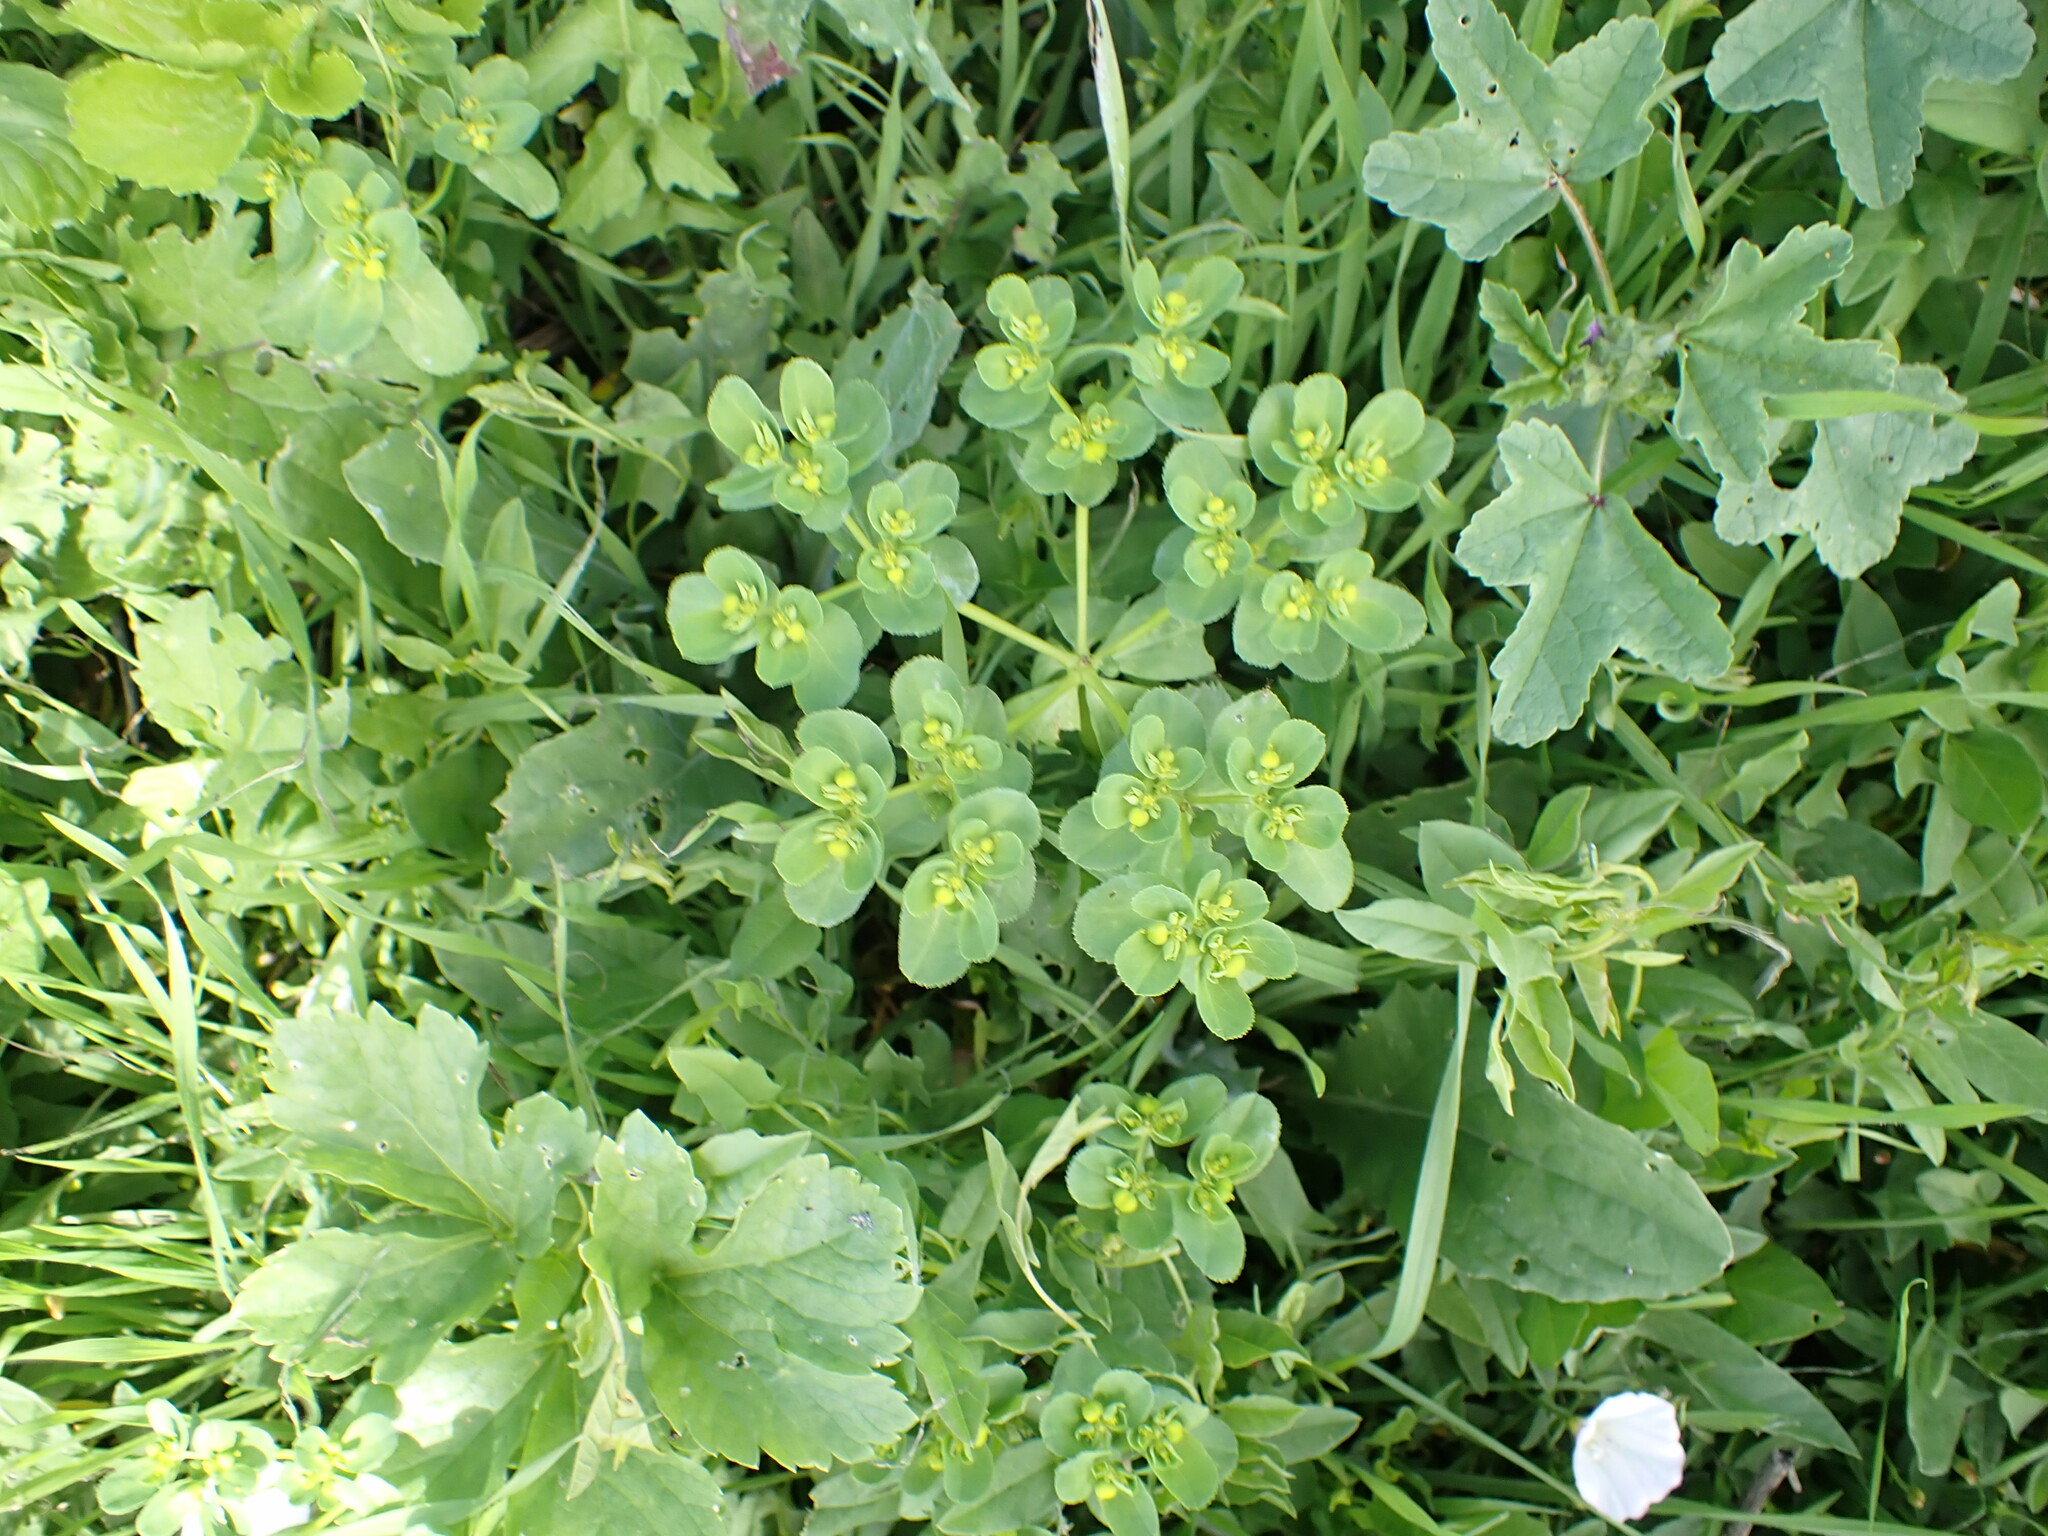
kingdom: Plantae
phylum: Tracheophyta
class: Magnoliopsida
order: Malpighiales
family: Euphorbiaceae
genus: Euphorbia
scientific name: Euphorbia helioscopia
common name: Sun spurge
